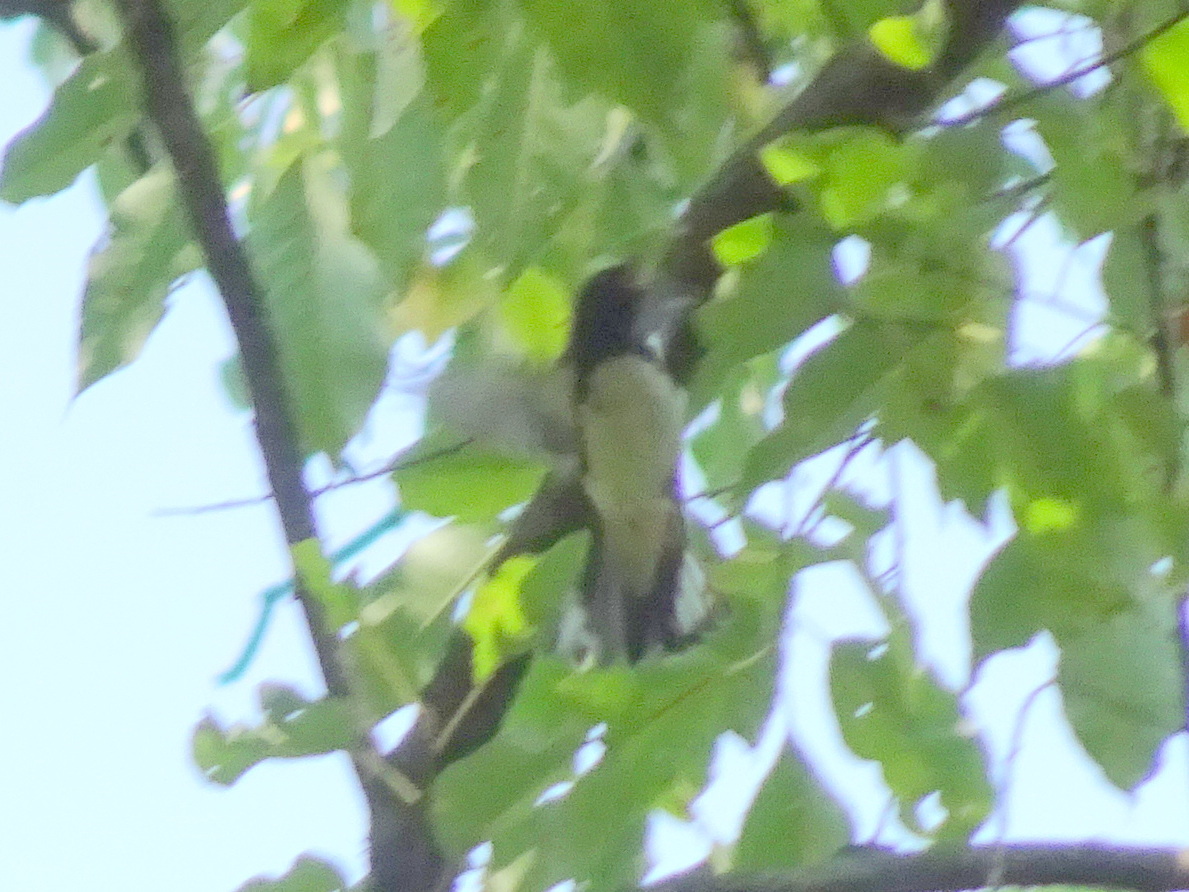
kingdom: Animalia
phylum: Chordata
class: Aves
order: Passeriformes
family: Parulidae
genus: Setophaga
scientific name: Setophaga caerulescens
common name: Black-throated blue warbler
